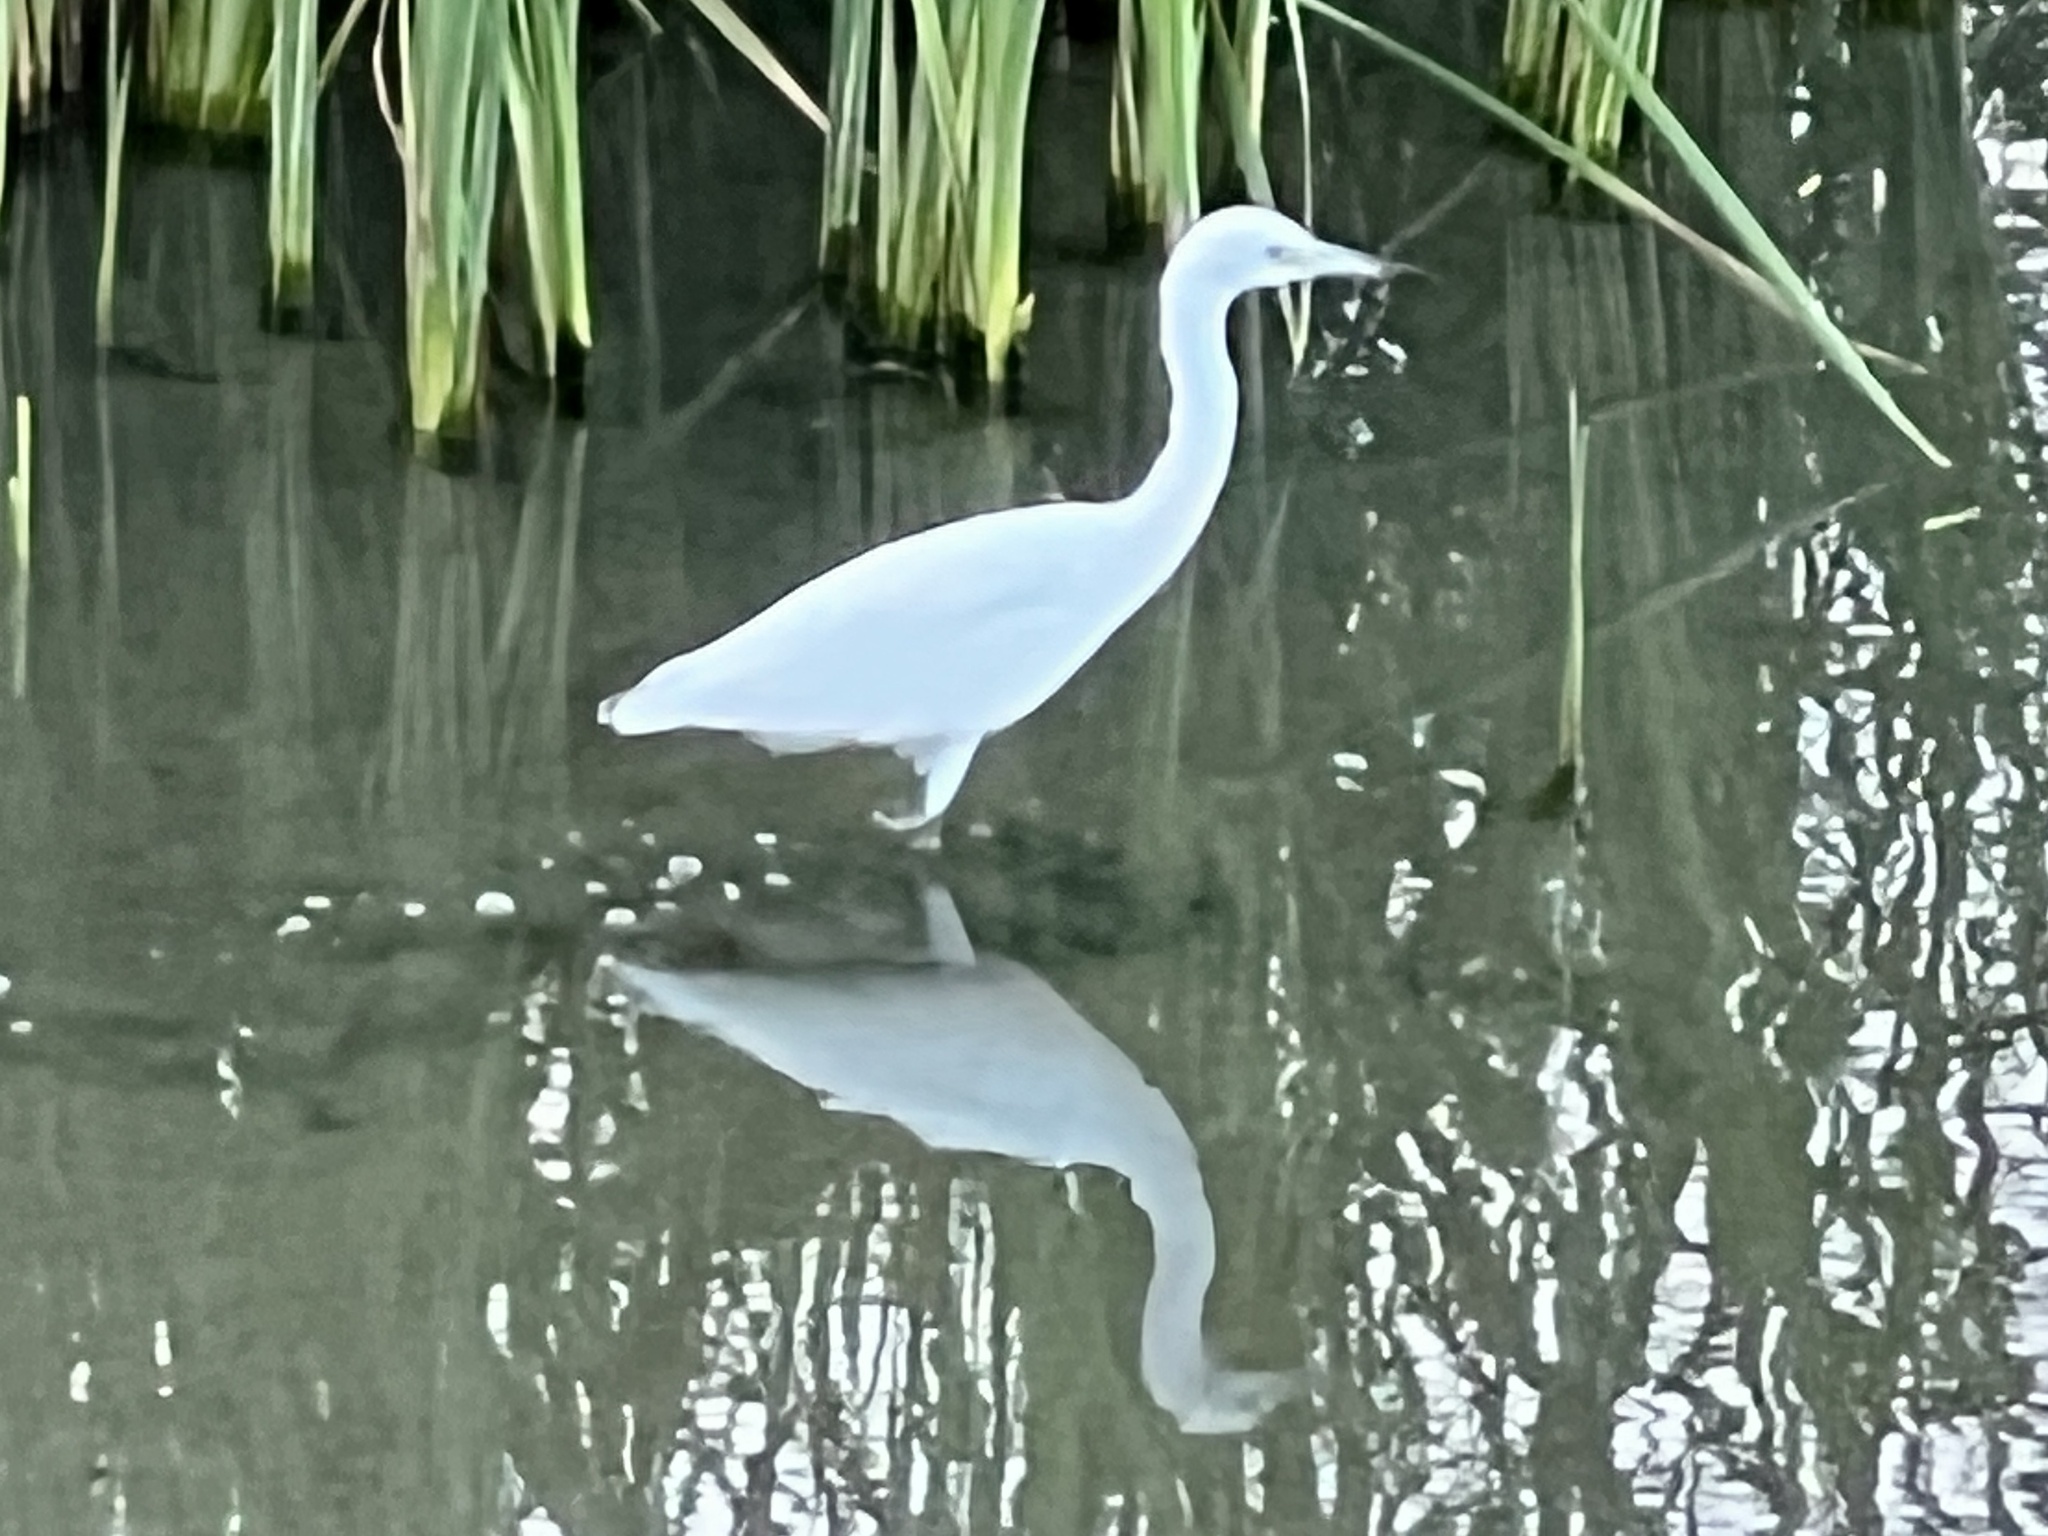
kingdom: Animalia
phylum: Chordata
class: Aves
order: Pelecaniformes
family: Ardeidae
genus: Egretta
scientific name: Egretta caerulea
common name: Little blue heron
